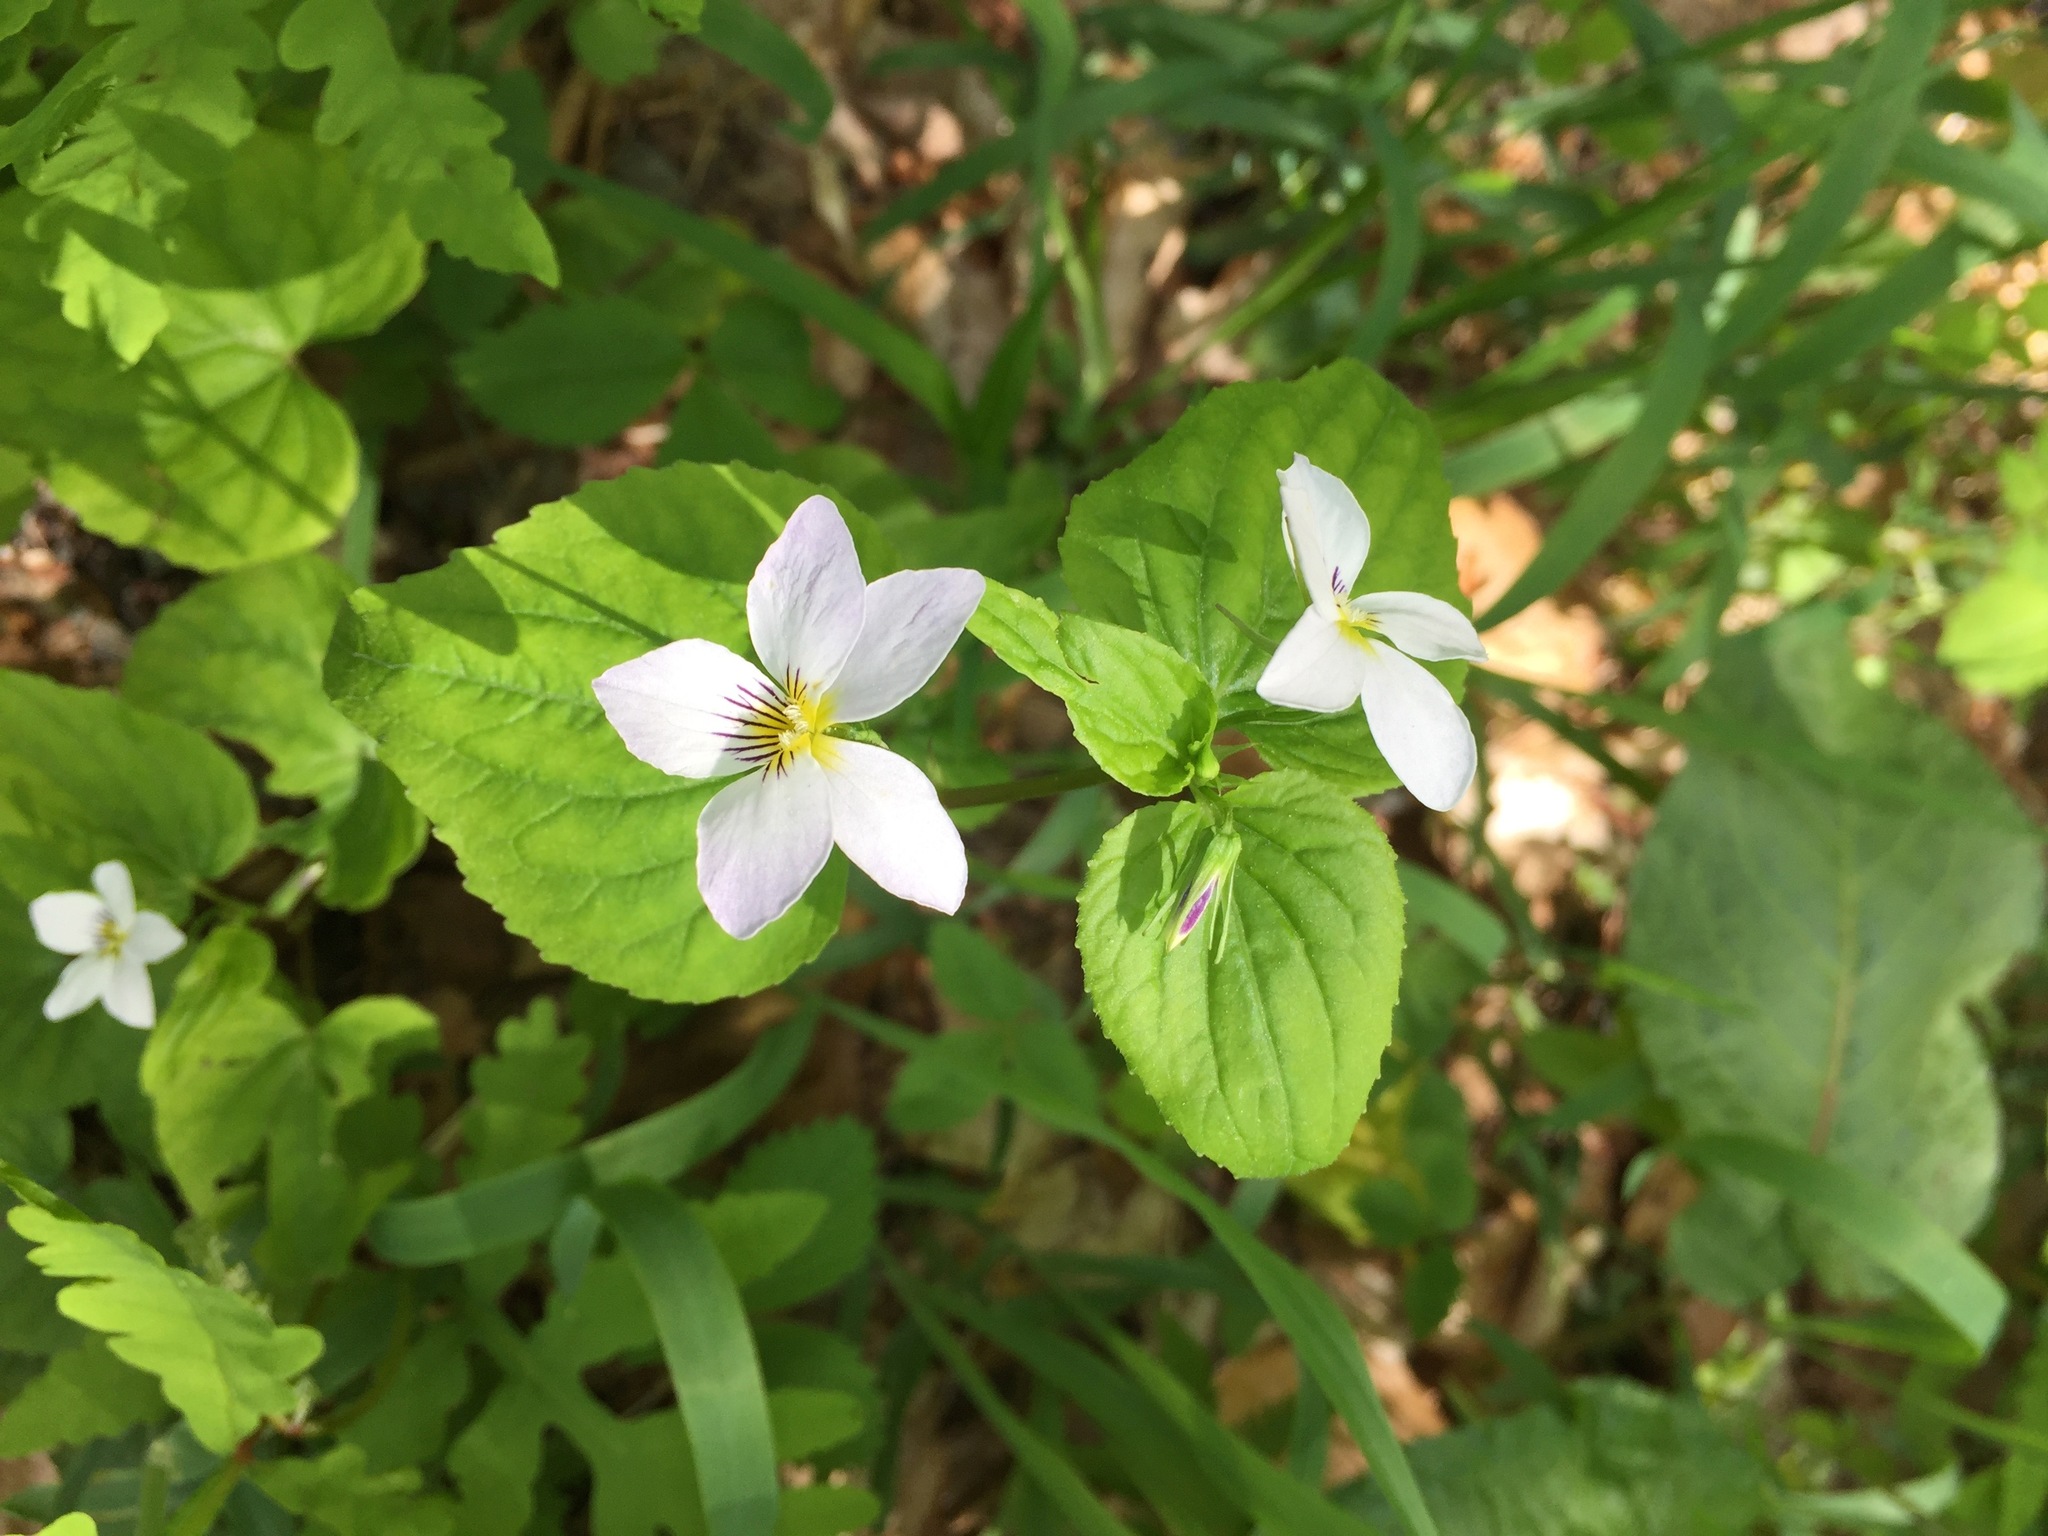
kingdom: Plantae
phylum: Tracheophyta
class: Magnoliopsida
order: Malpighiales
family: Violaceae
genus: Viola
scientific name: Viola canadensis
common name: Canada violet
